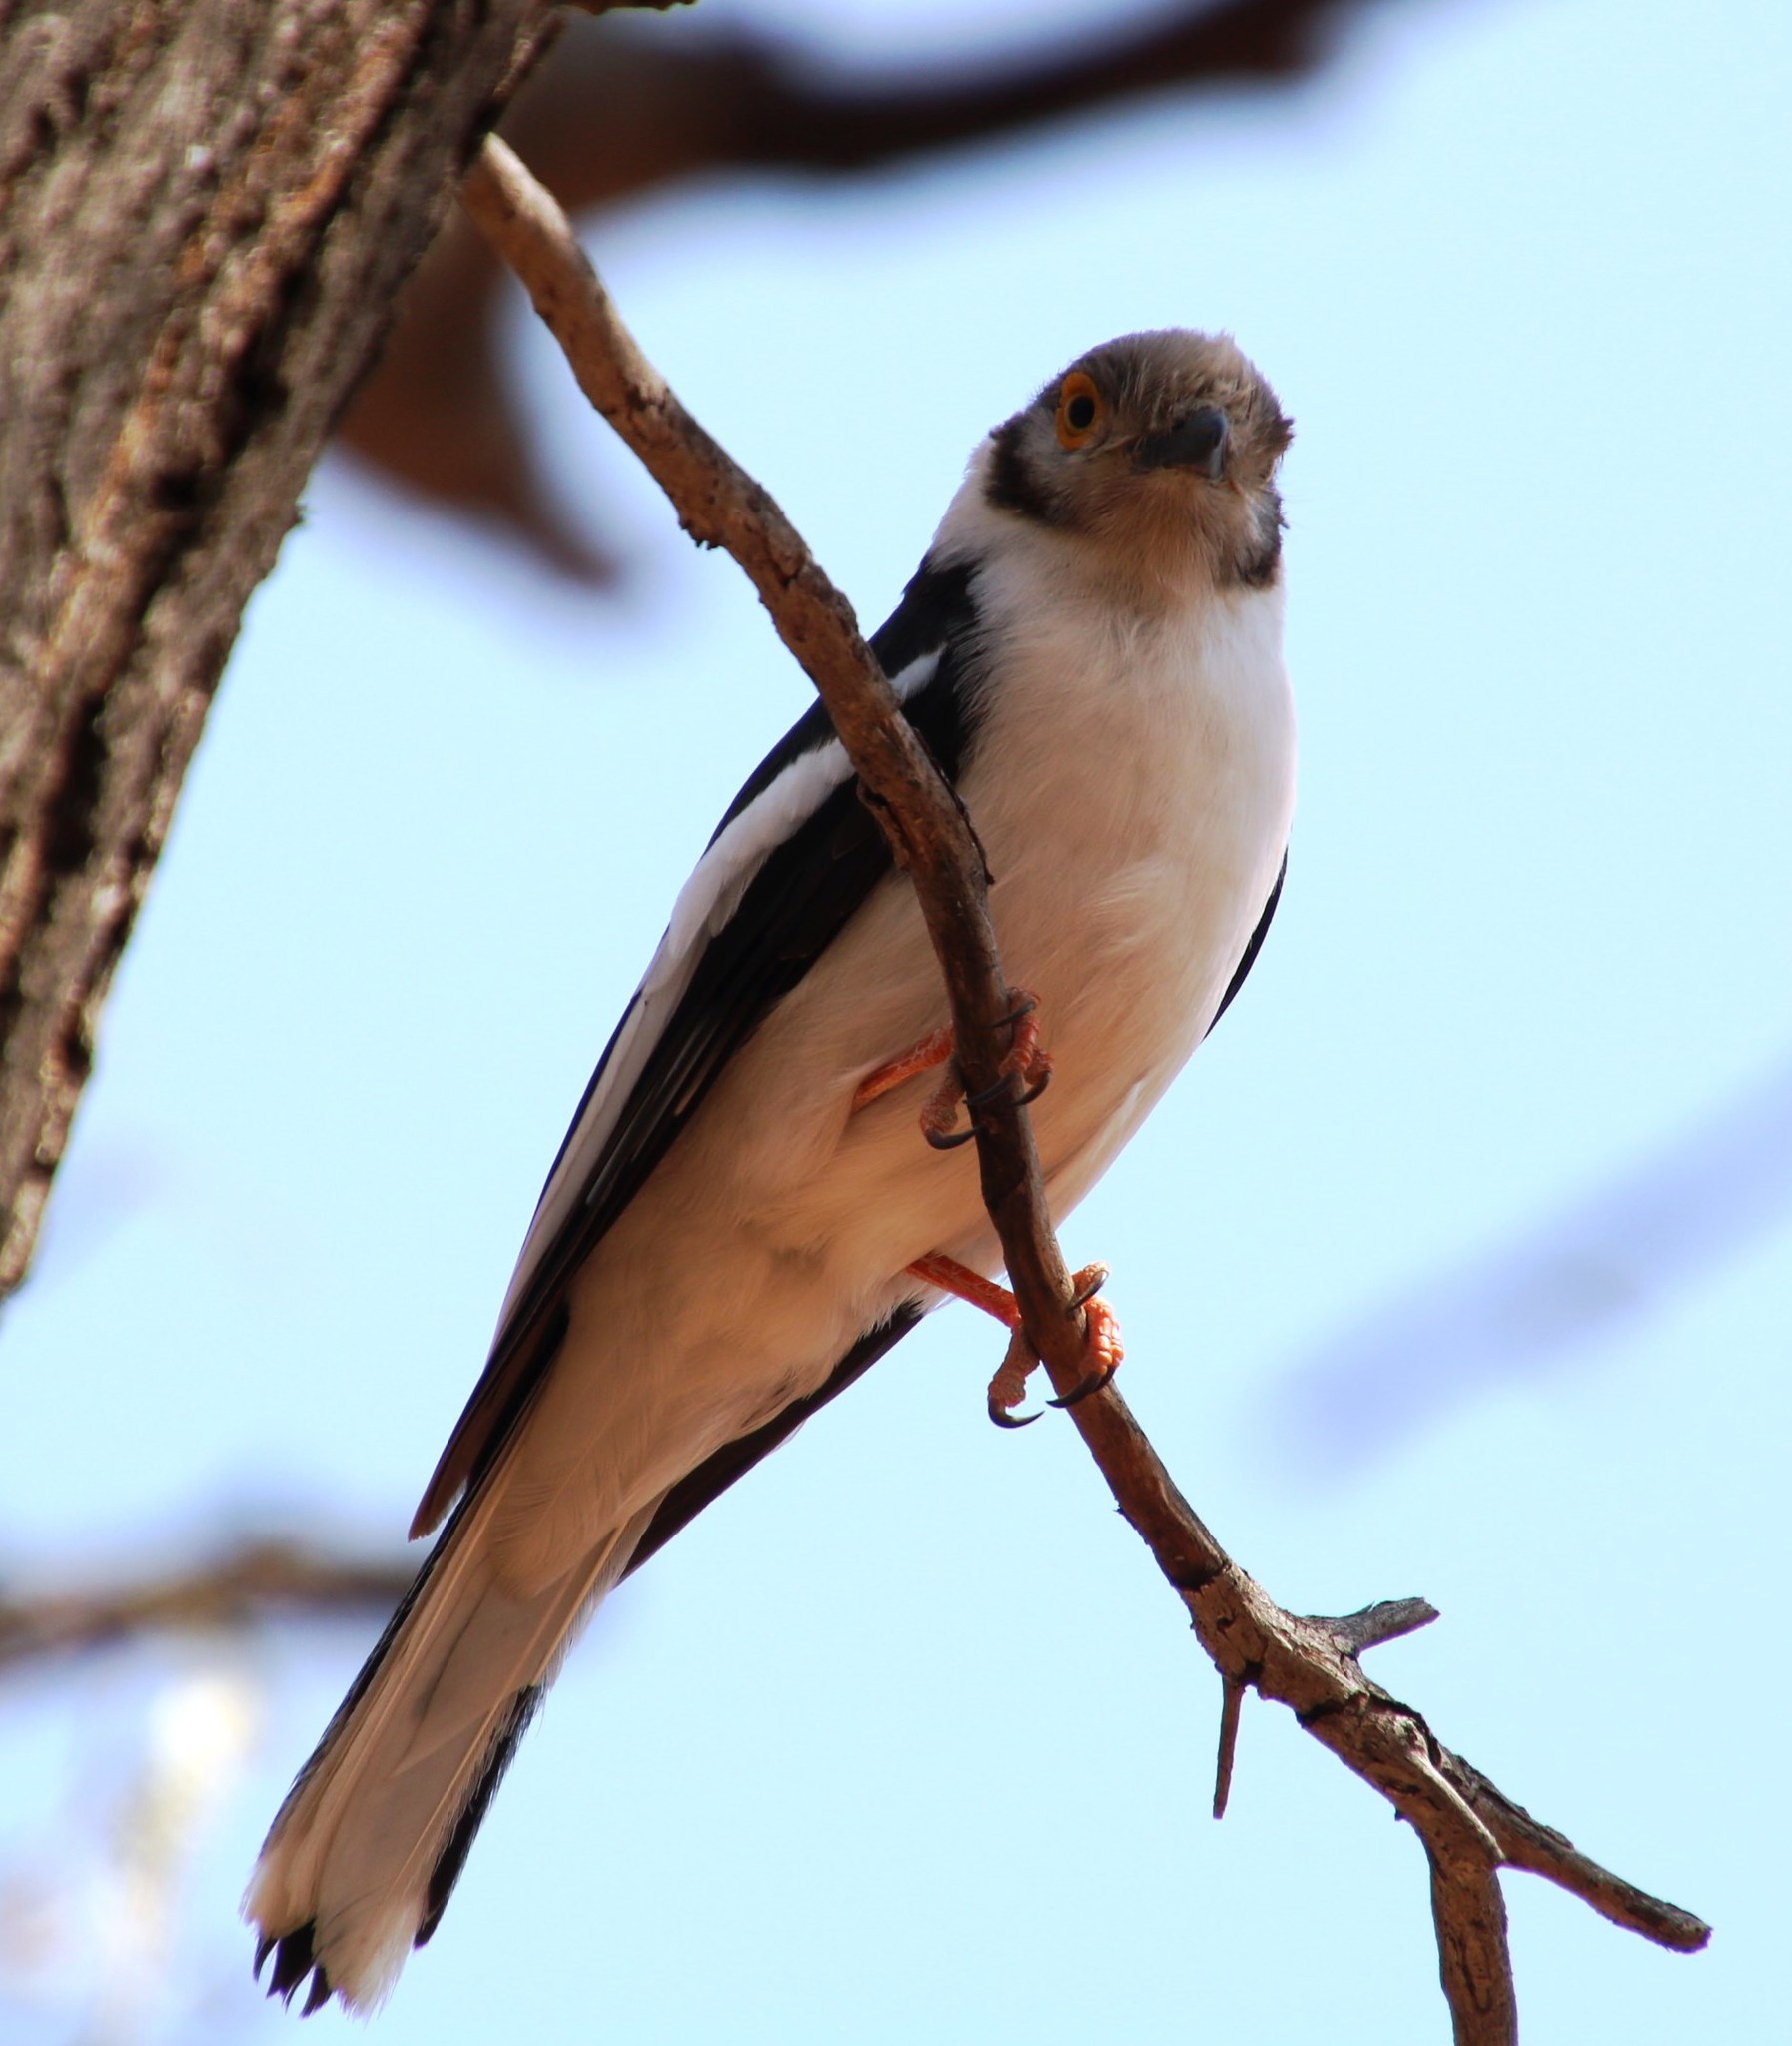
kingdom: Animalia
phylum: Chordata
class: Aves
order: Passeriformes
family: Prionopidae
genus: Prionops
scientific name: Prionops plumatus
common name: White-crested helmetshrike
